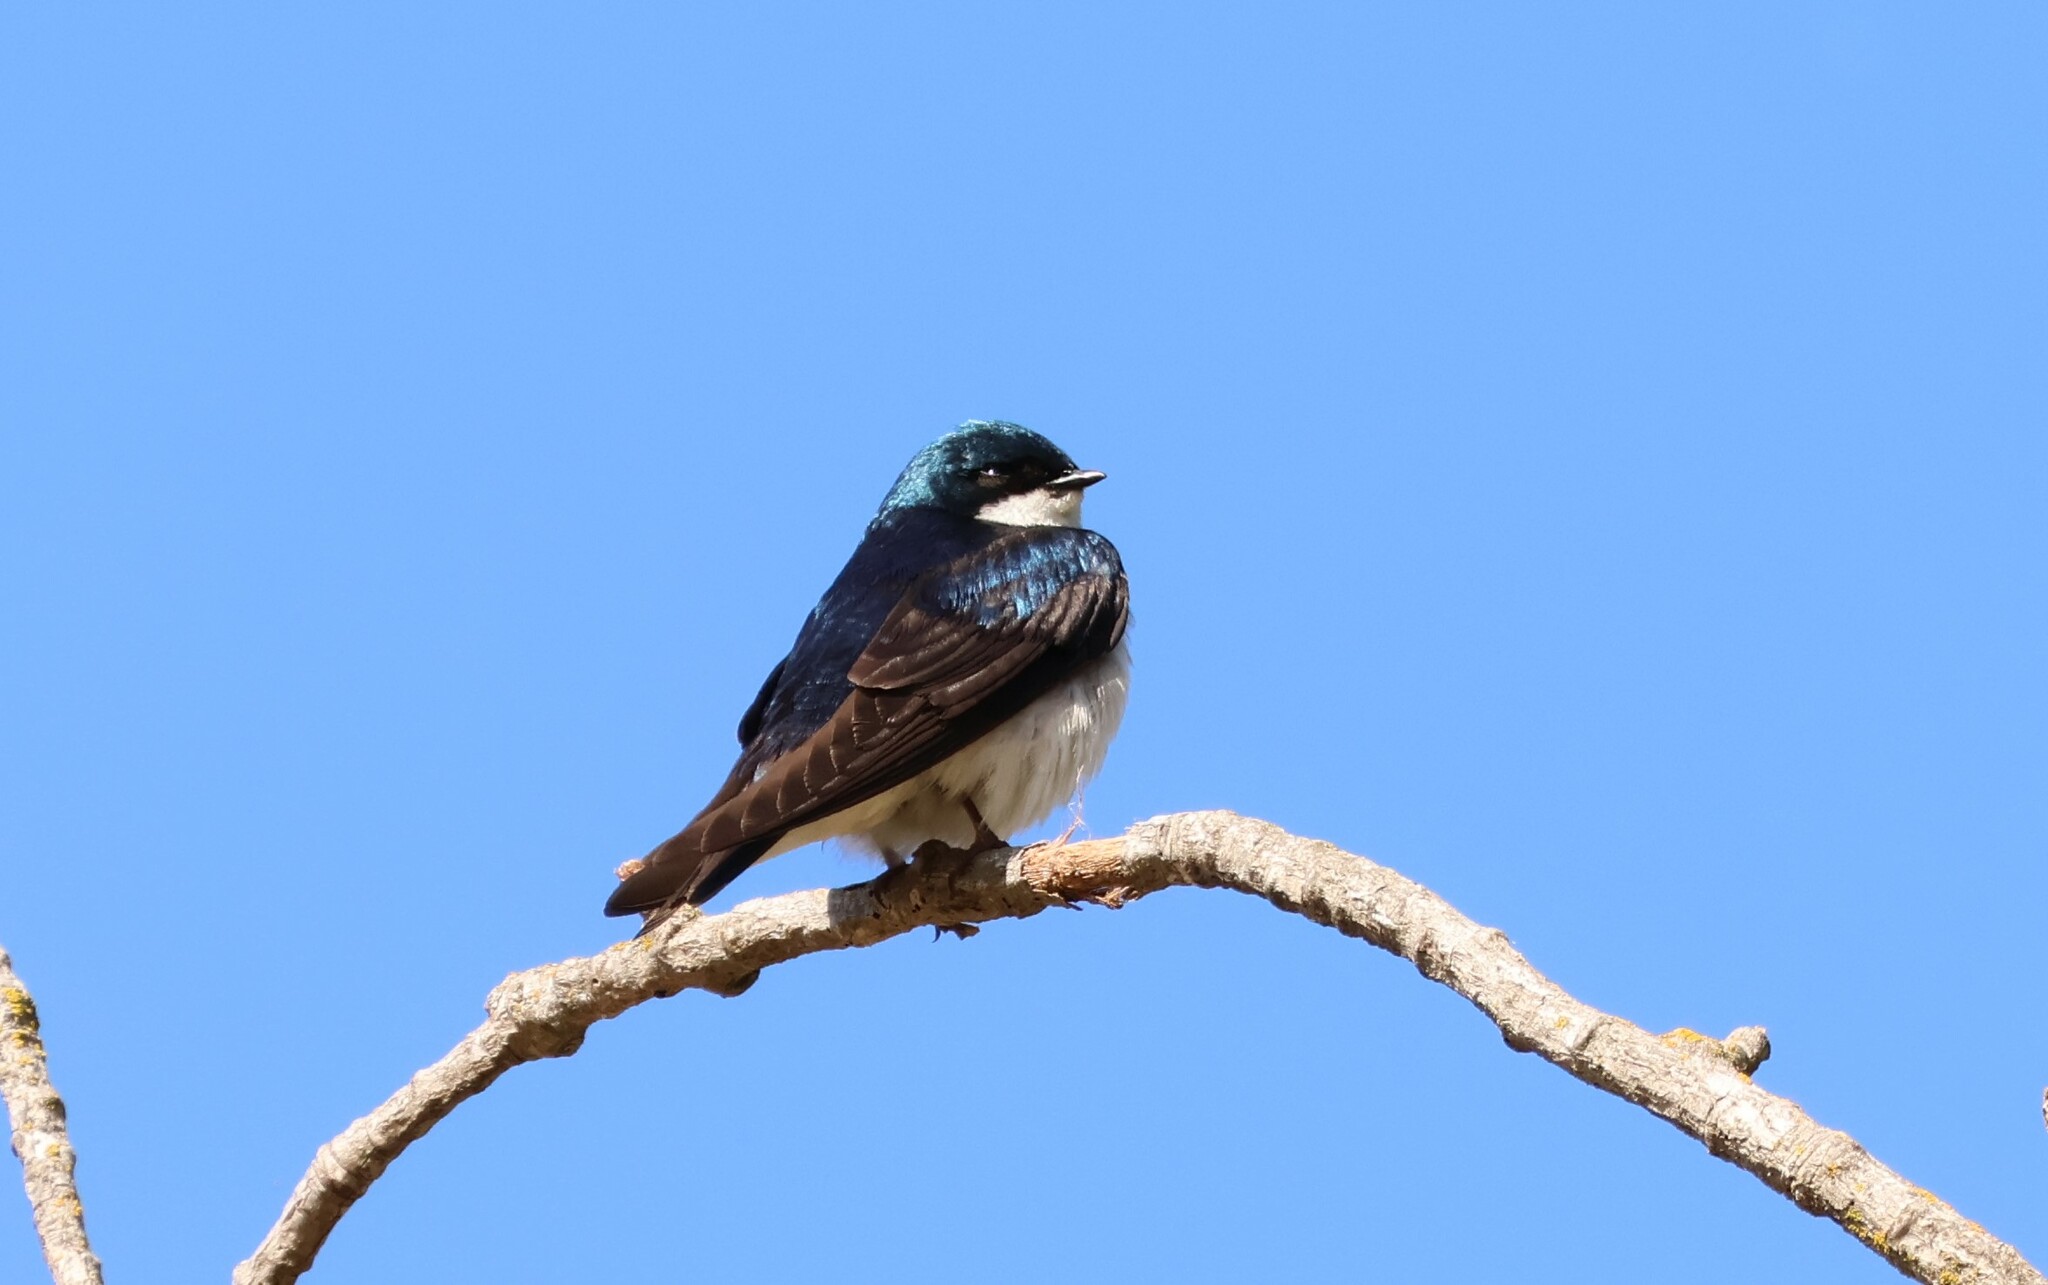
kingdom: Animalia
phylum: Chordata
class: Aves
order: Passeriformes
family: Hirundinidae
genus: Tachycineta
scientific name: Tachycineta bicolor
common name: Tree swallow
